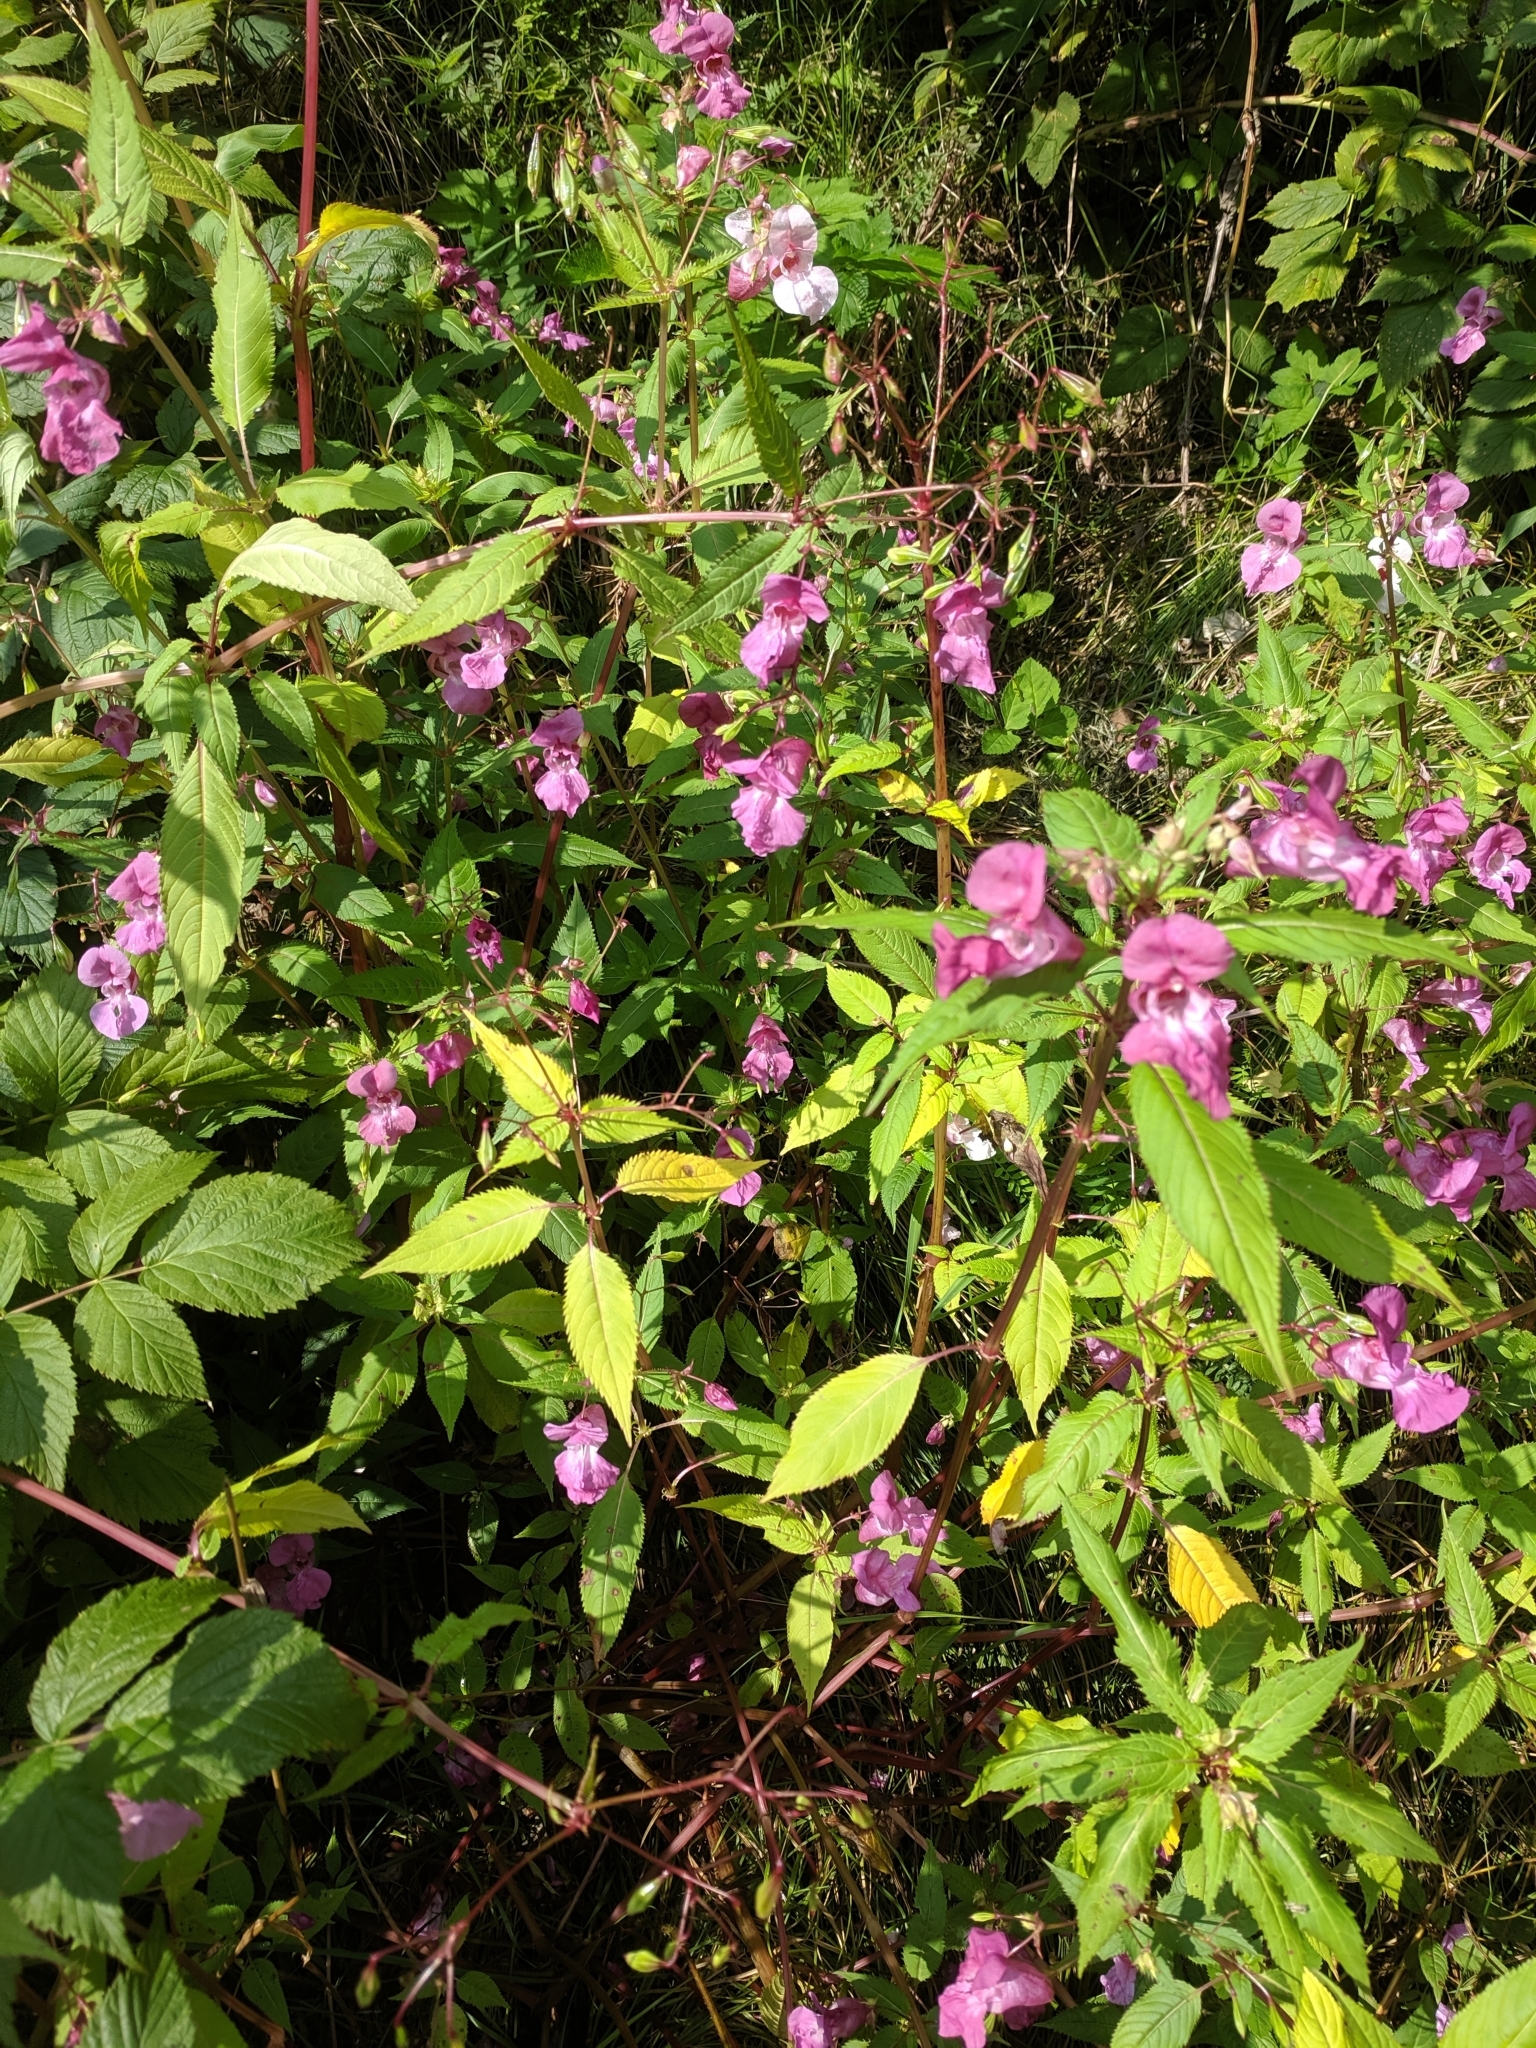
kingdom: Plantae
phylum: Tracheophyta
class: Magnoliopsida
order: Ericales
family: Balsaminaceae
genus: Impatiens
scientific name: Impatiens glandulifera
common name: Himalayan balsam
